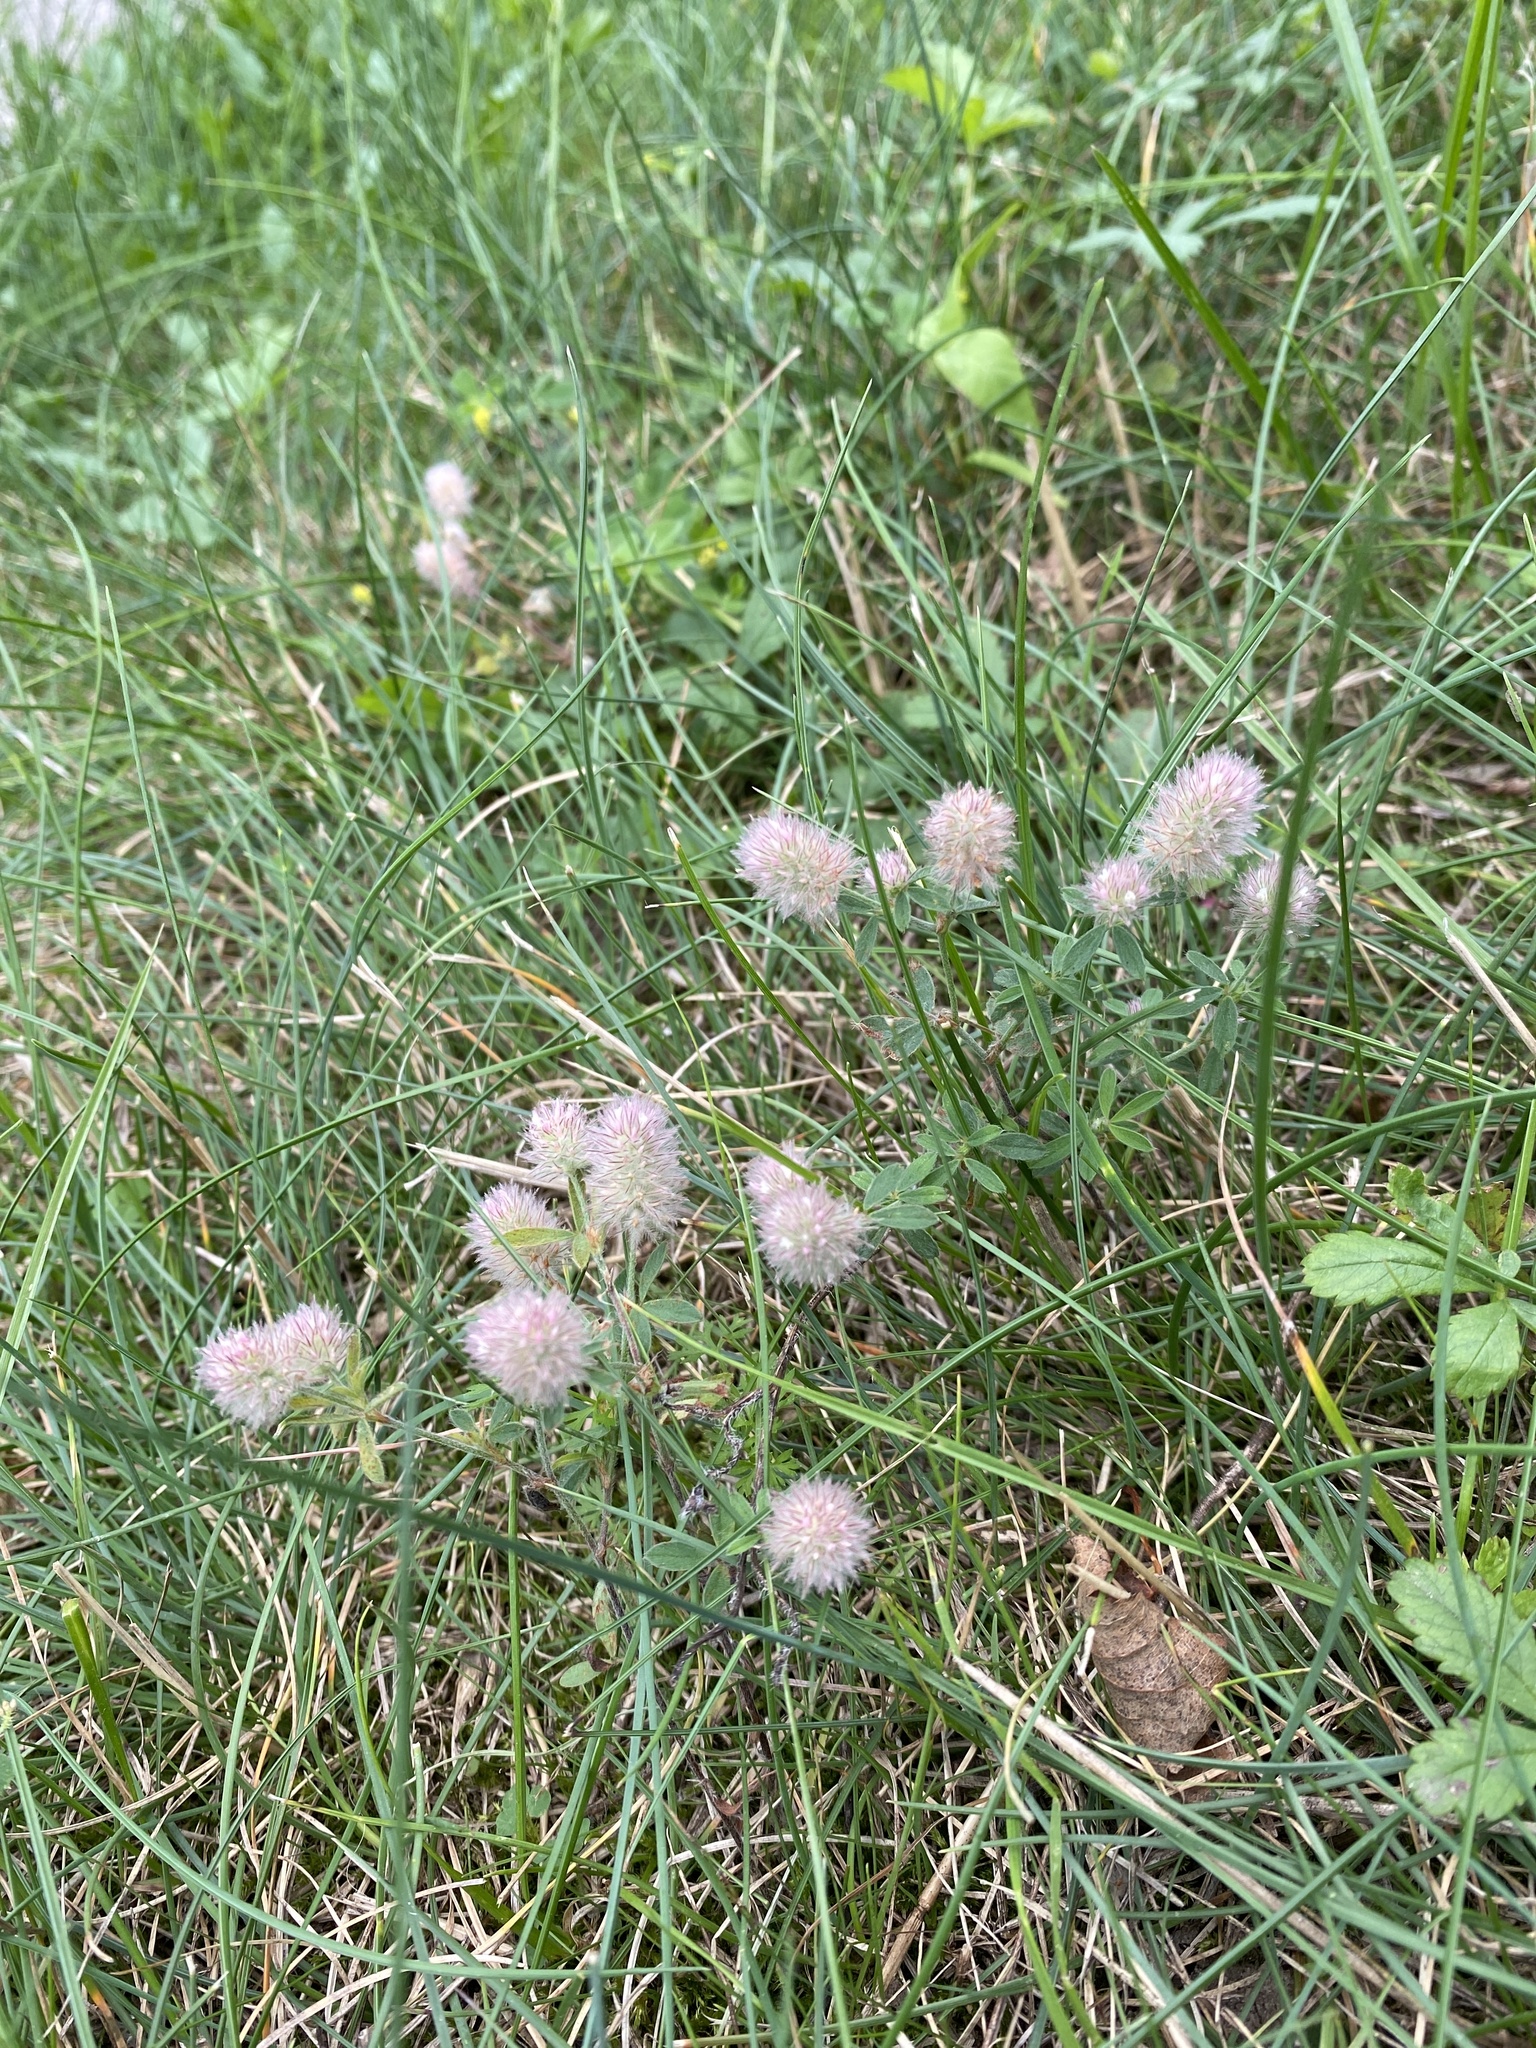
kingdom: Plantae
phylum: Tracheophyta
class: Magnoliopsida
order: Fabales
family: Fabaceae
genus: Trifolium
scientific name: Trifolium arvense
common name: Hare's-foot clover
